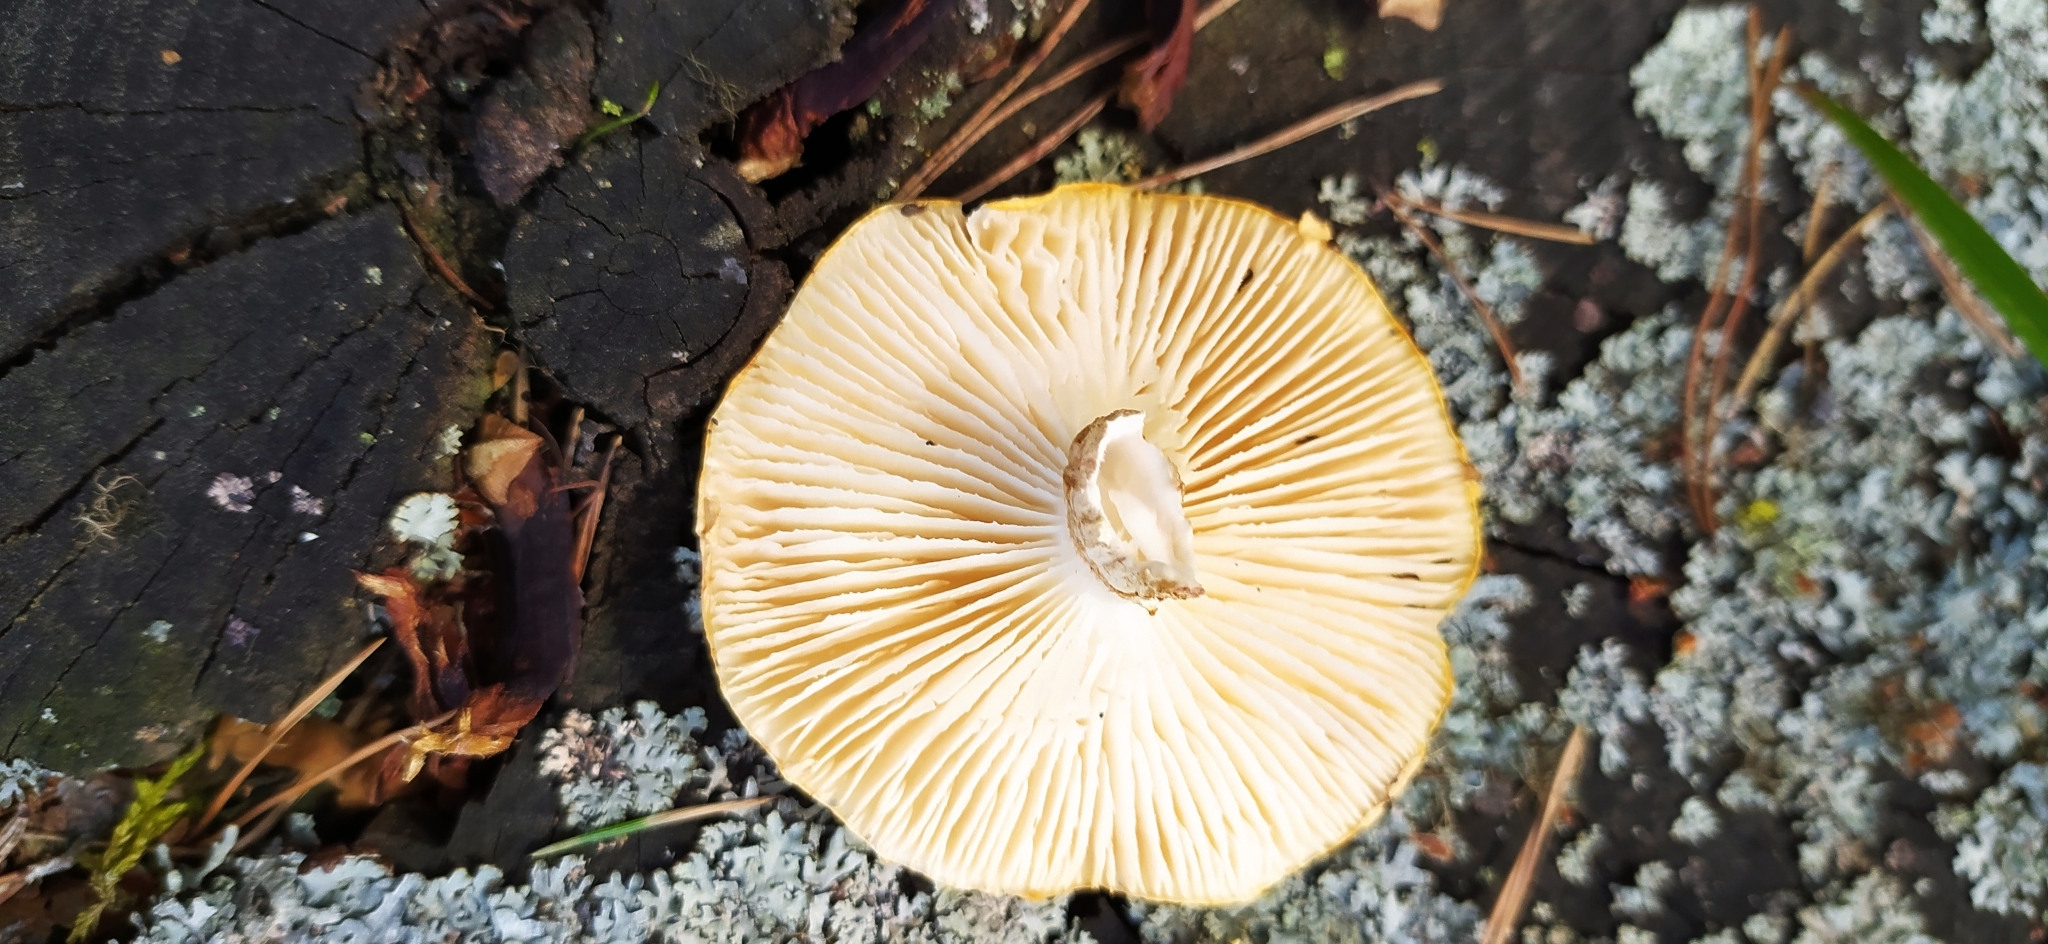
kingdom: Fungi
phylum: Basidiomycota
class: Agaricomycetes
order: Gloeophyllales
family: Gloeophyllaceae
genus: Neolentinus
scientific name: Neolentinus lepideus
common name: Scaly sawgill
